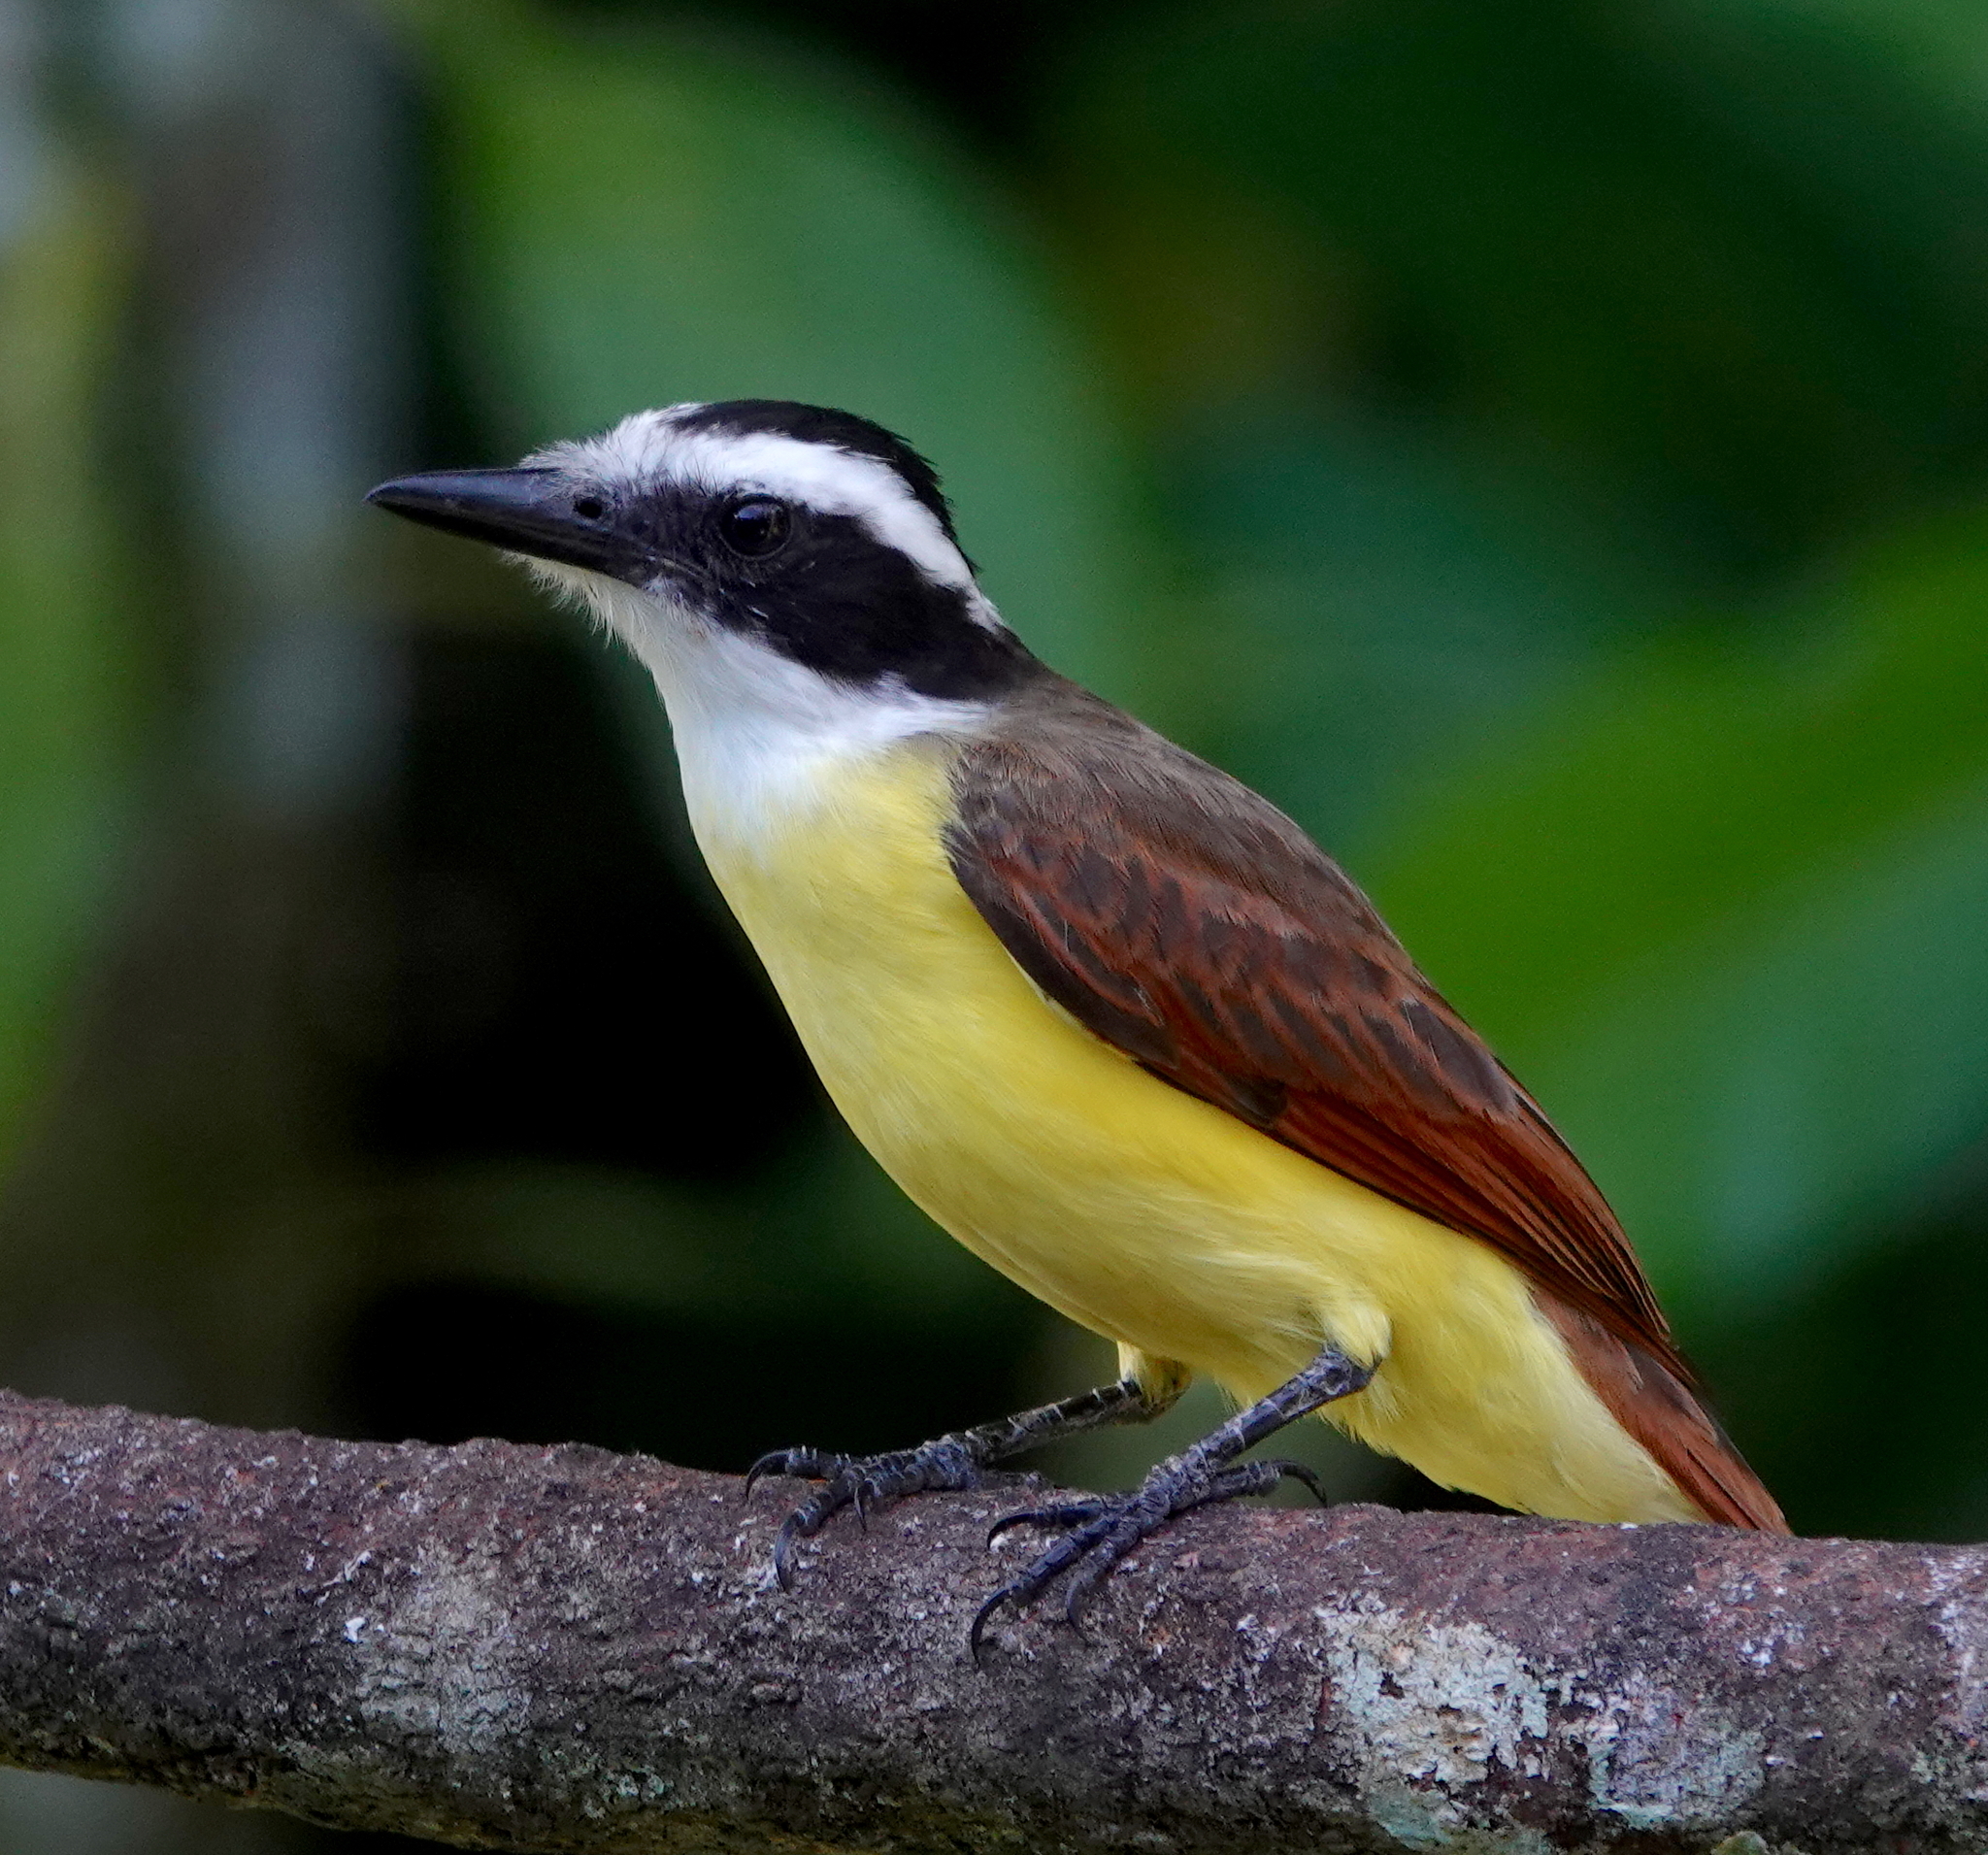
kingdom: Animalia
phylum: Chordata
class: Aves
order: Passeriformes
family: Tyrannidae
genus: Pitangus
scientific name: Pitangus sulphuratus
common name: Great kiskadee
